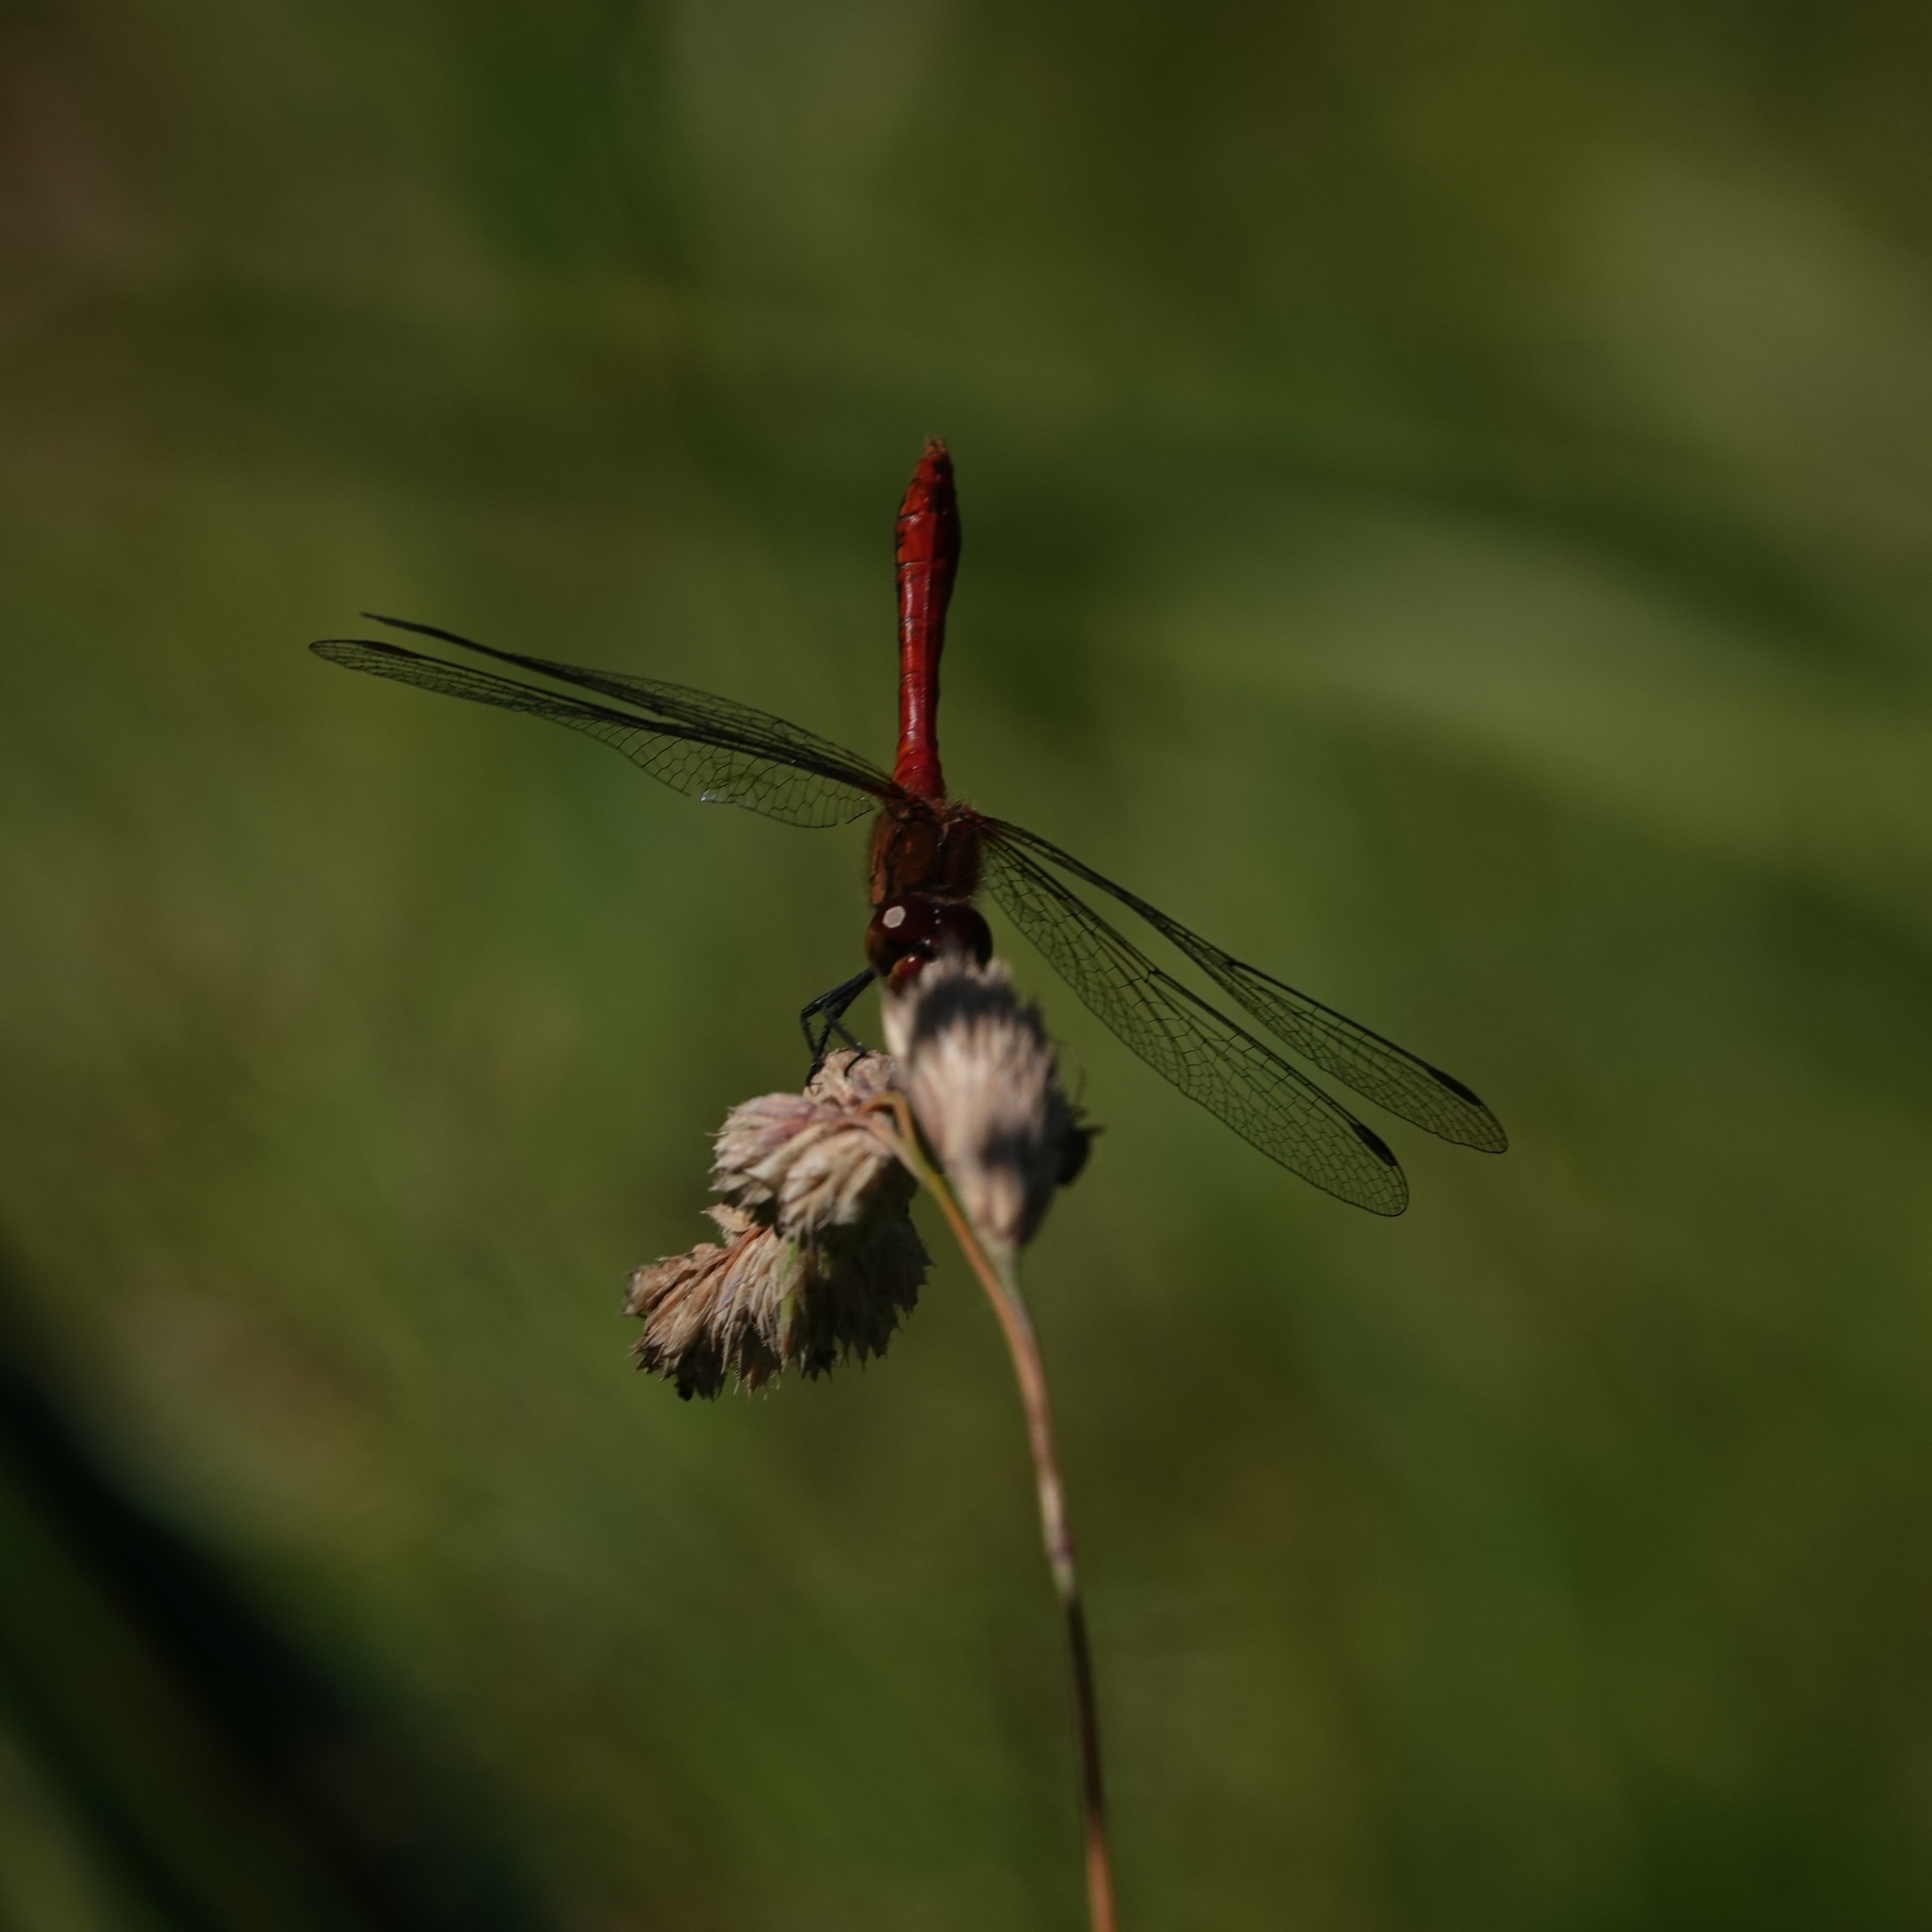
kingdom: Animalia
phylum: Arthropoda
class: Insecta
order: Odonata
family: Libellulidae
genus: Sympetrum
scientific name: Sympetrum sanguineum
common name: Ruddy darter
